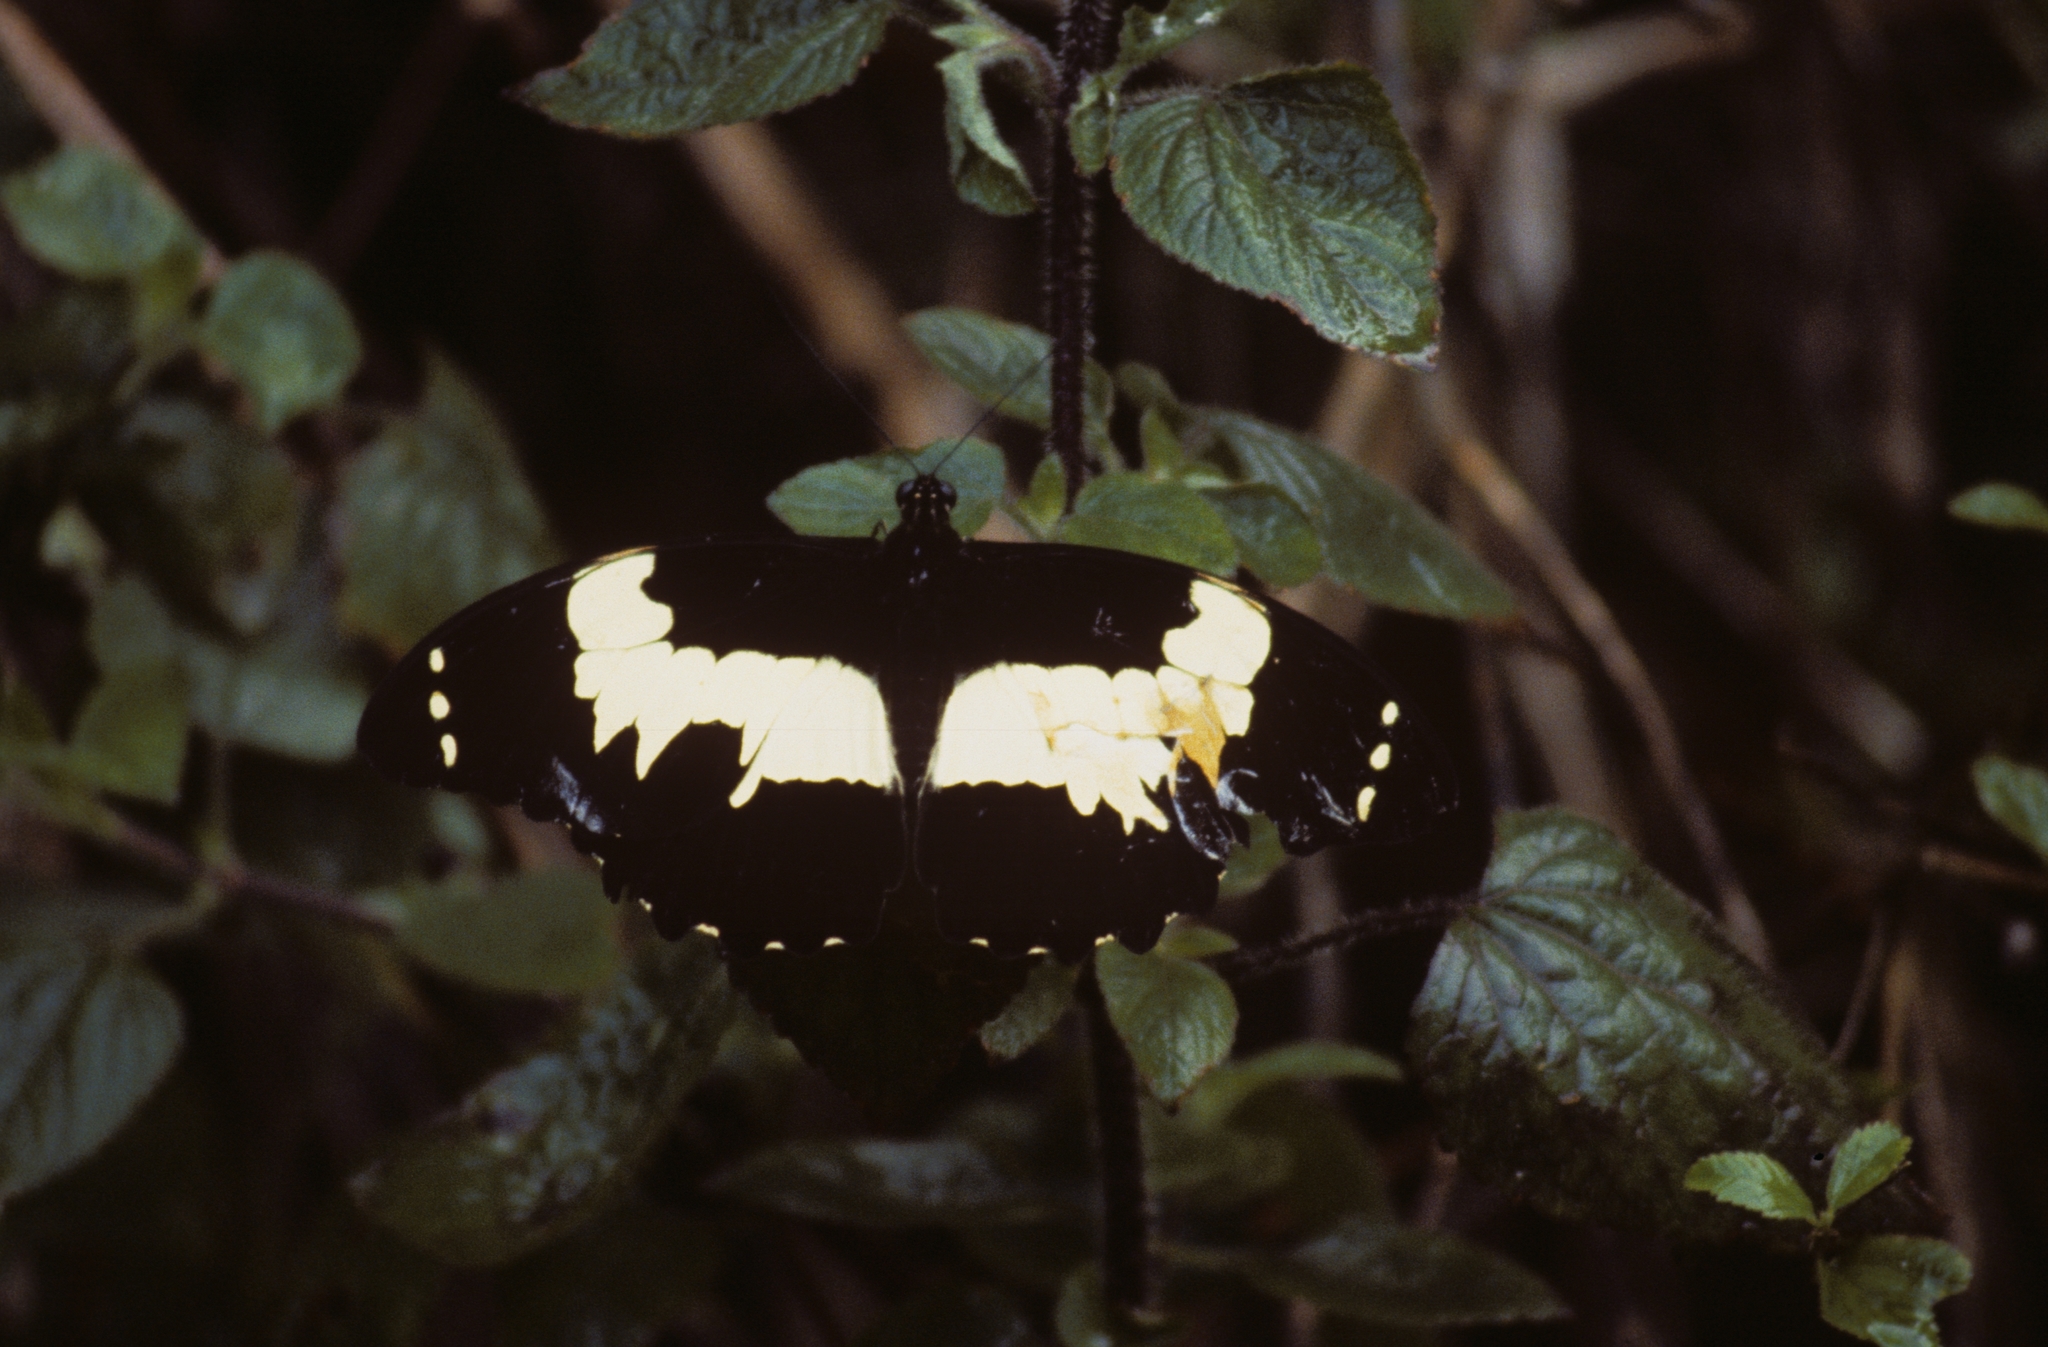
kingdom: Animalia
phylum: Arthropoda
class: Insecta
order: Lepidoptera
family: Papilionidae
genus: Papilio
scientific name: Papilio euchenor
